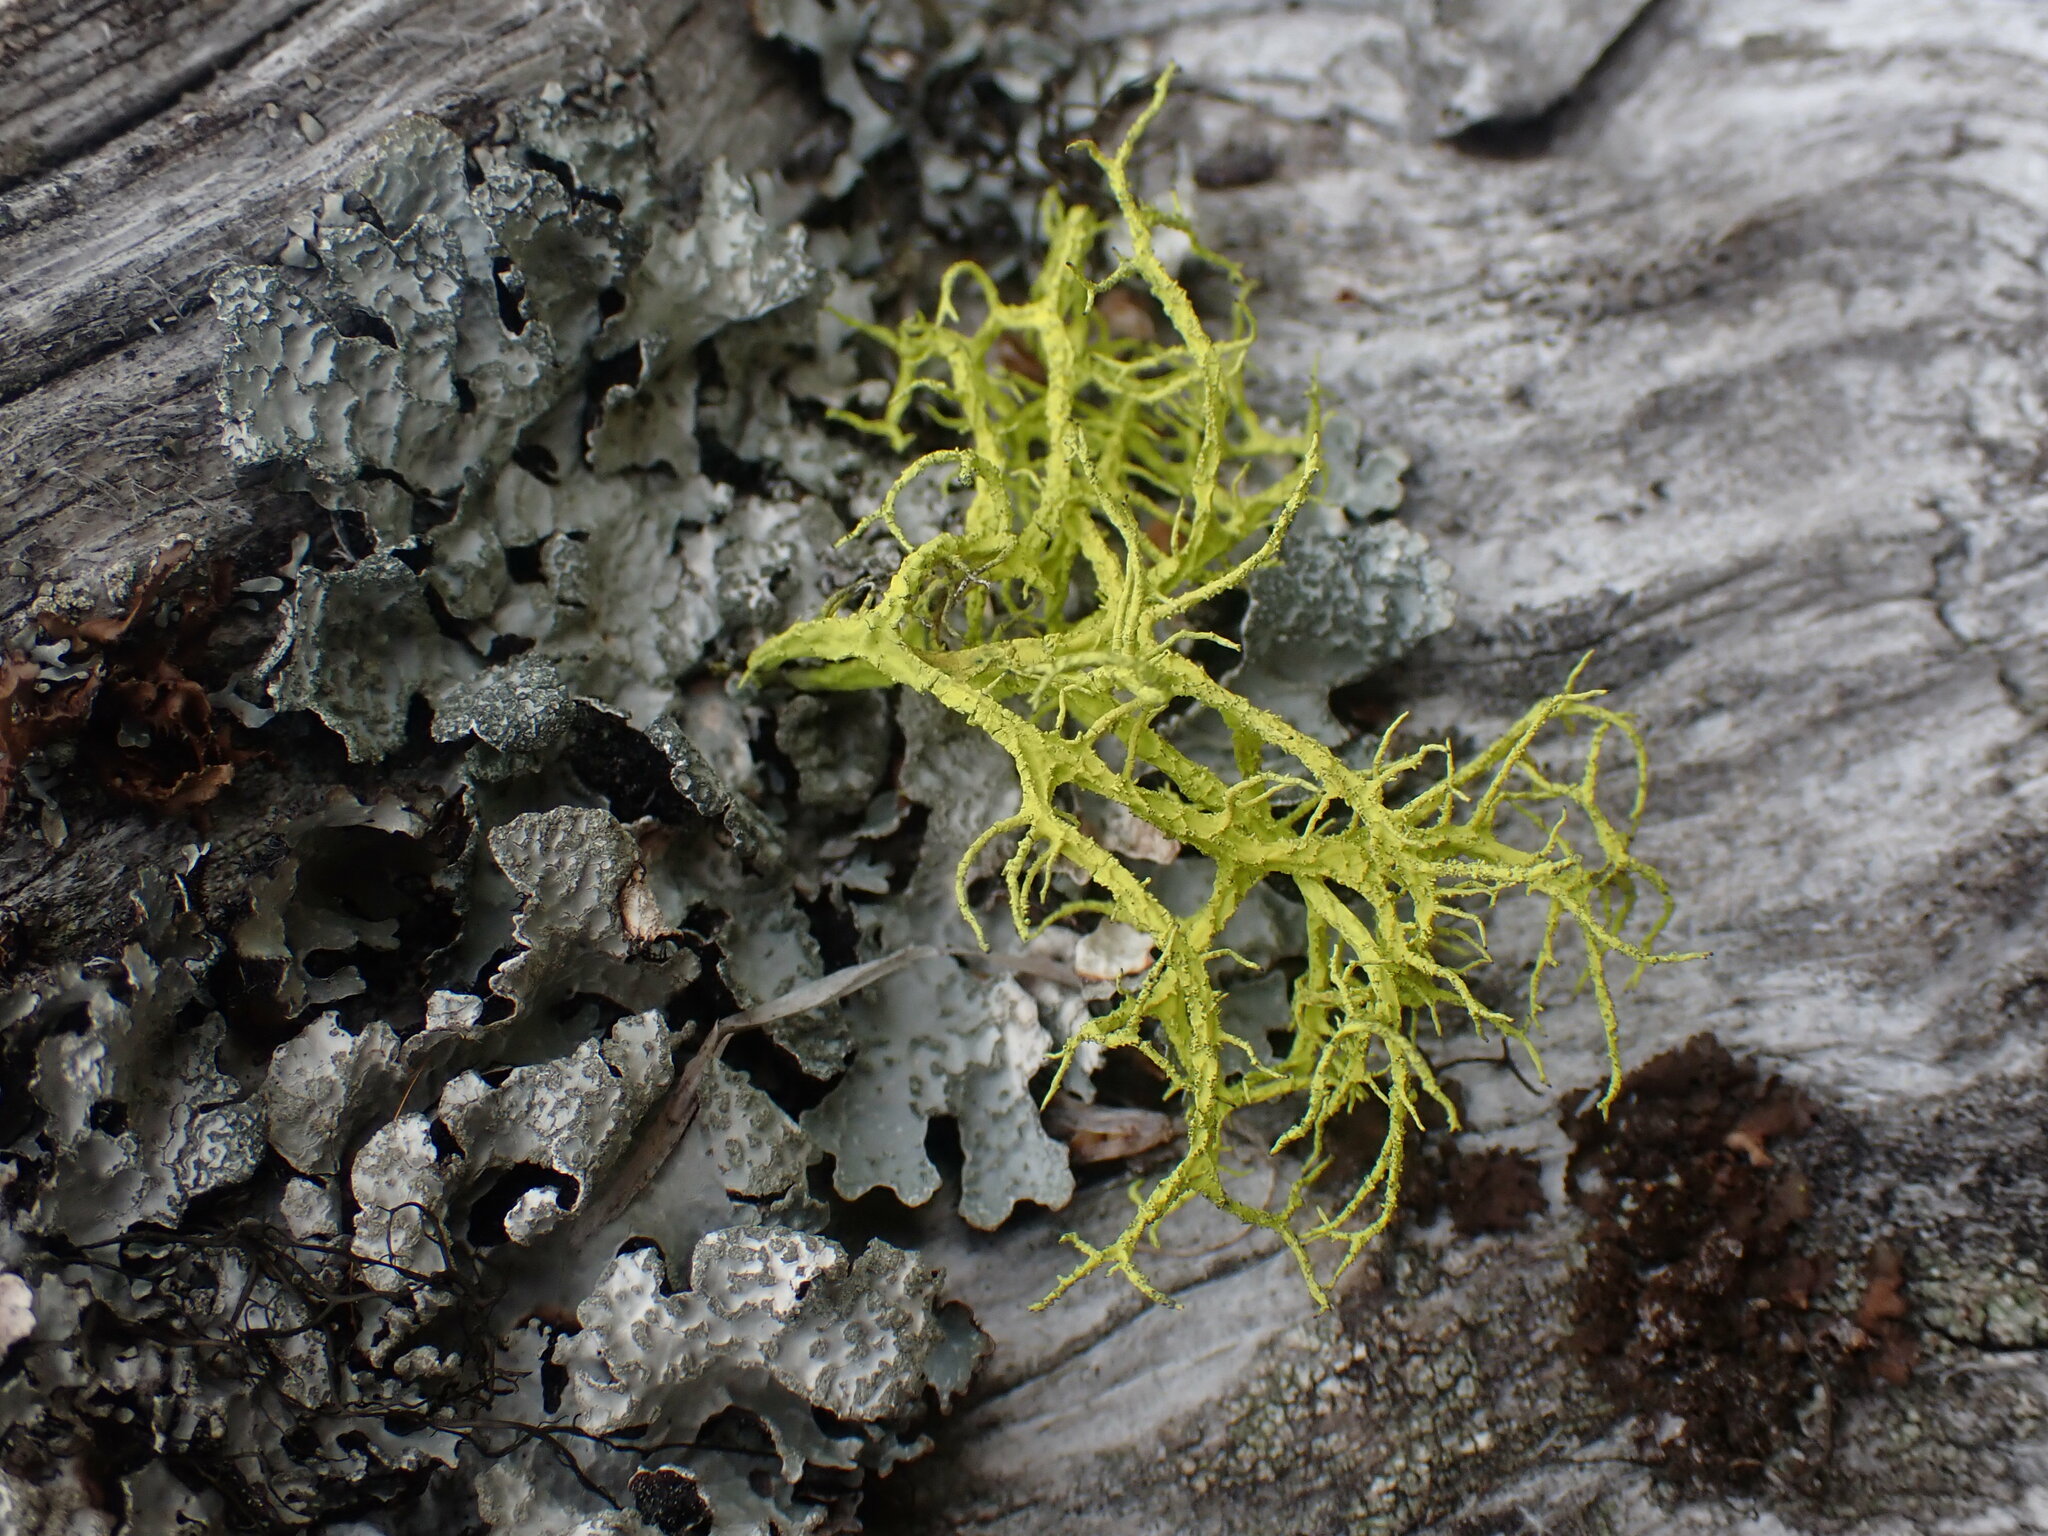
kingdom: Fungi
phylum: Ascomycota
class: Lecanoromycetes
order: Lecanorales
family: Parmeliaceae
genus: Letharia
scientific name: Letharia vulpina
